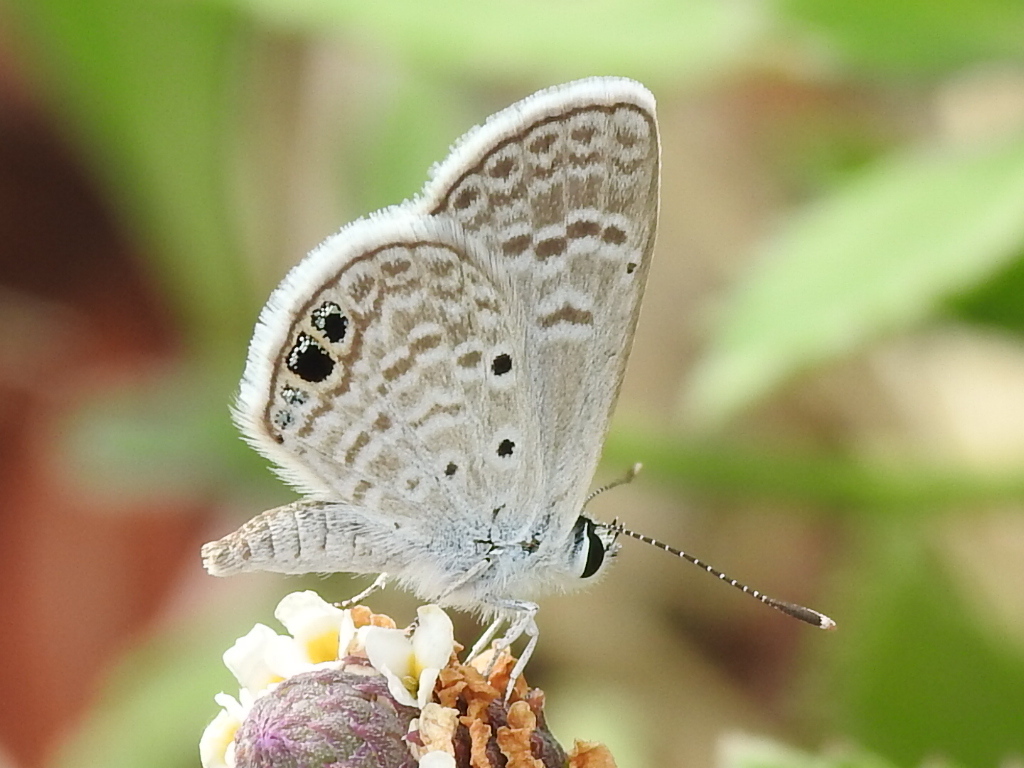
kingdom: Animalia
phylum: Arthropoda
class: Insecta
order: Lepidoptera
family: Lycaenidae
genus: Hemiargus
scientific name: Hemiargus ceraunus
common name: Ceraunus blue
